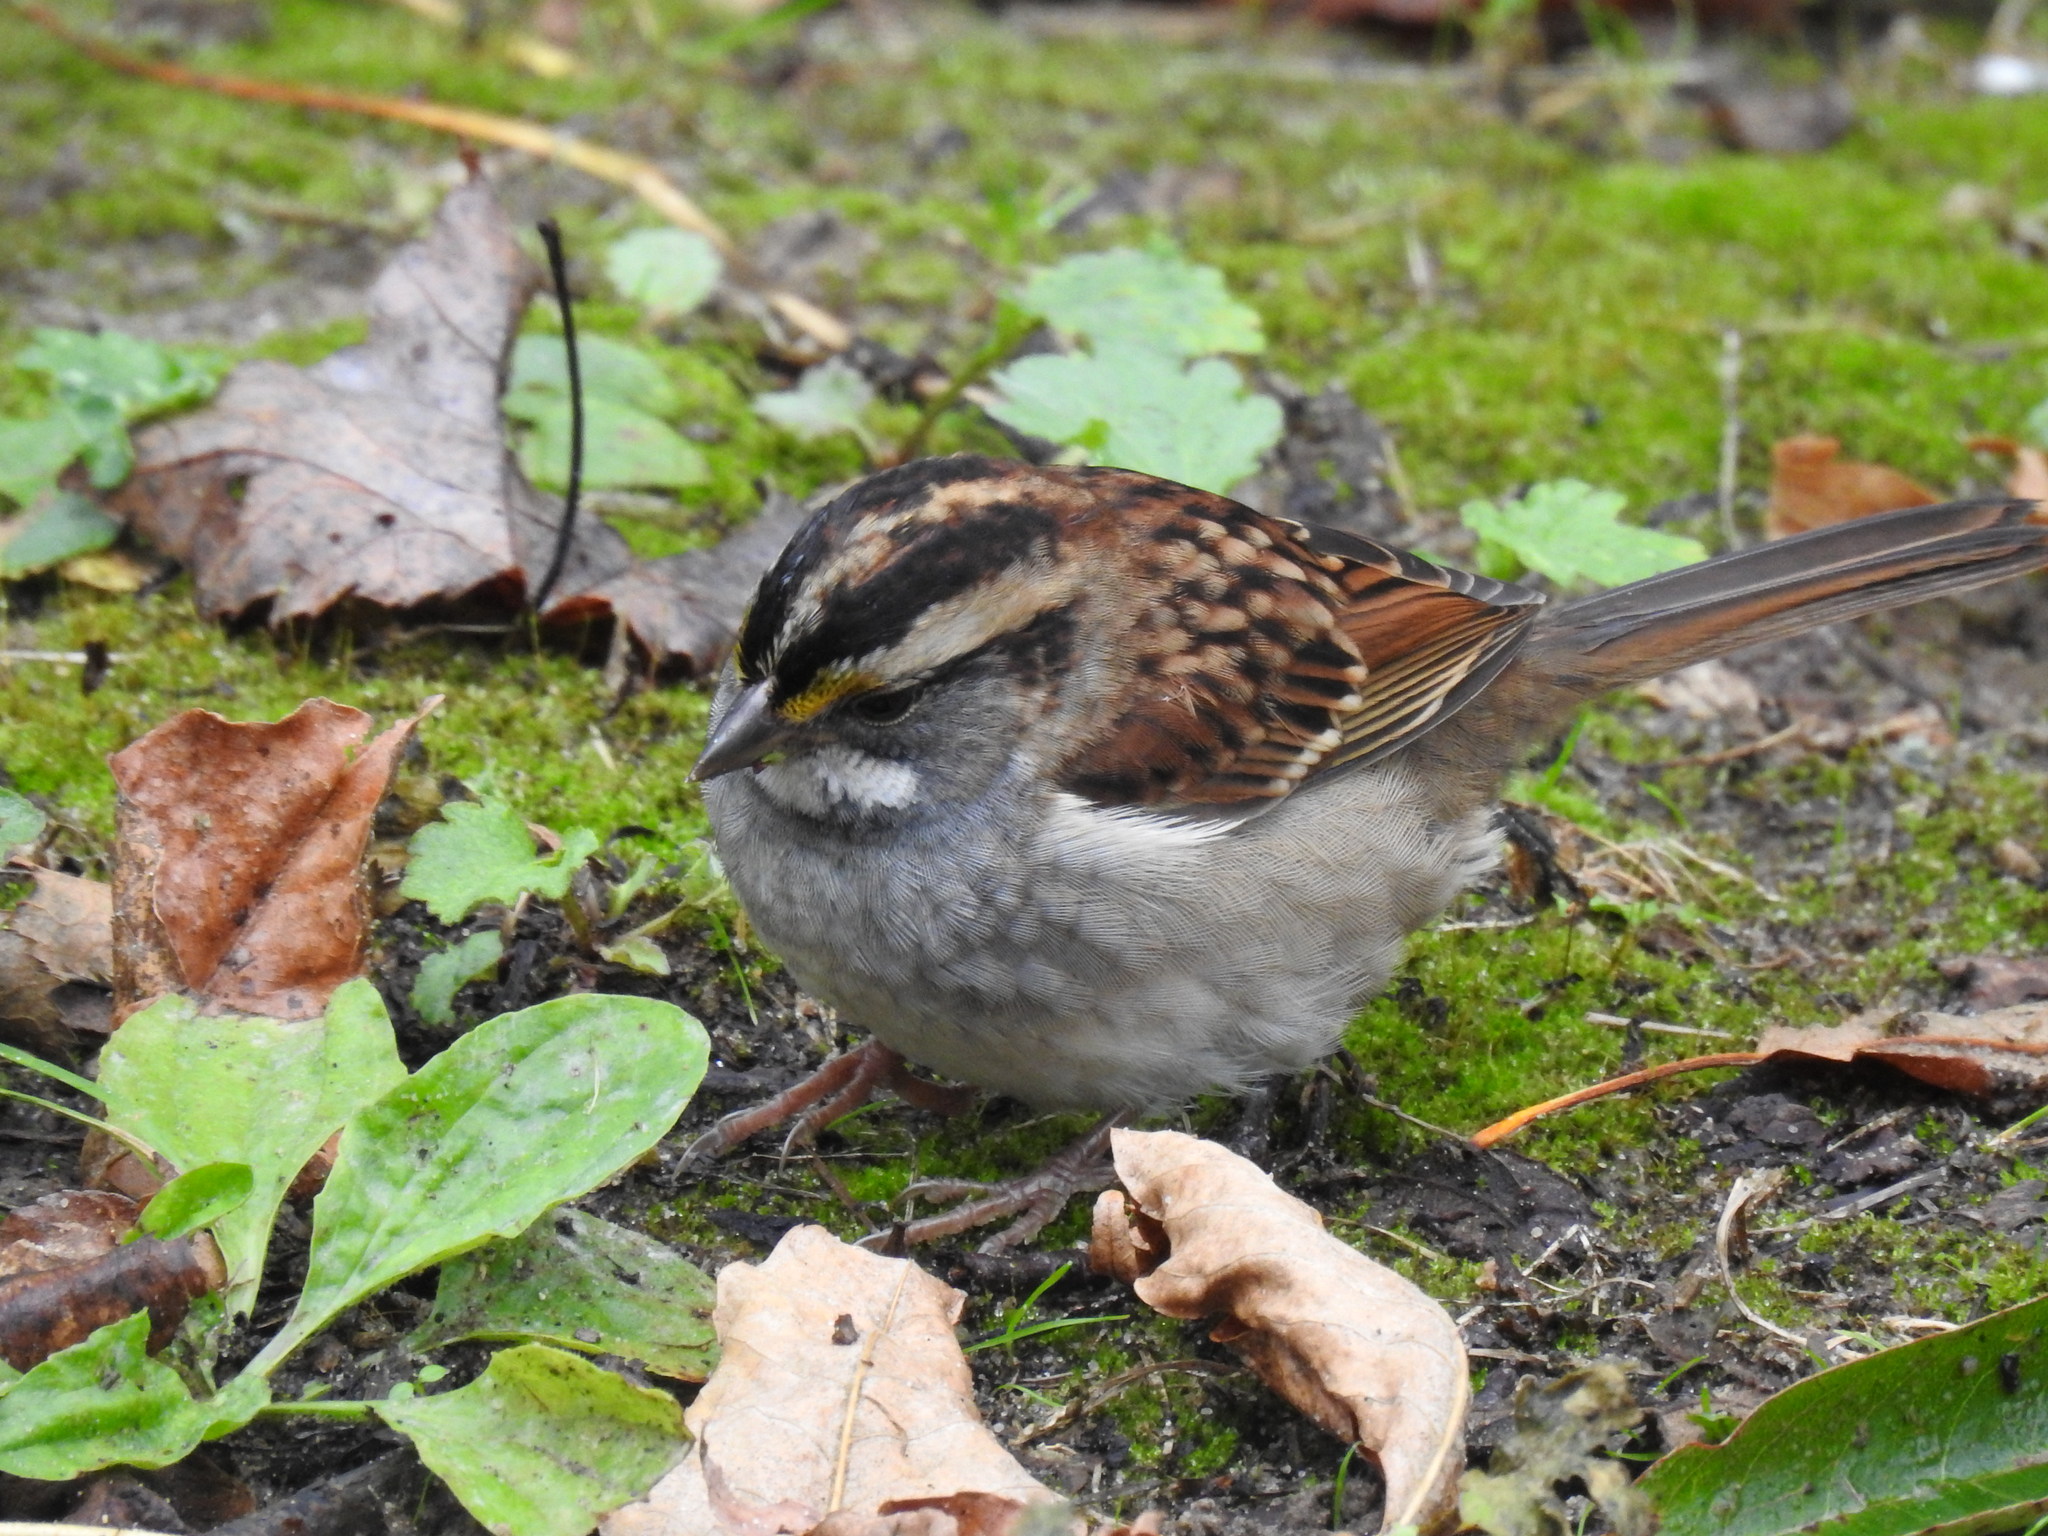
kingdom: Animalia
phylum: Chordata
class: Aves
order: Passeriformes
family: Passerellidae
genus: Zonotrichia
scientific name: Zonotrichia albicollis
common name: White-throated sparrow
